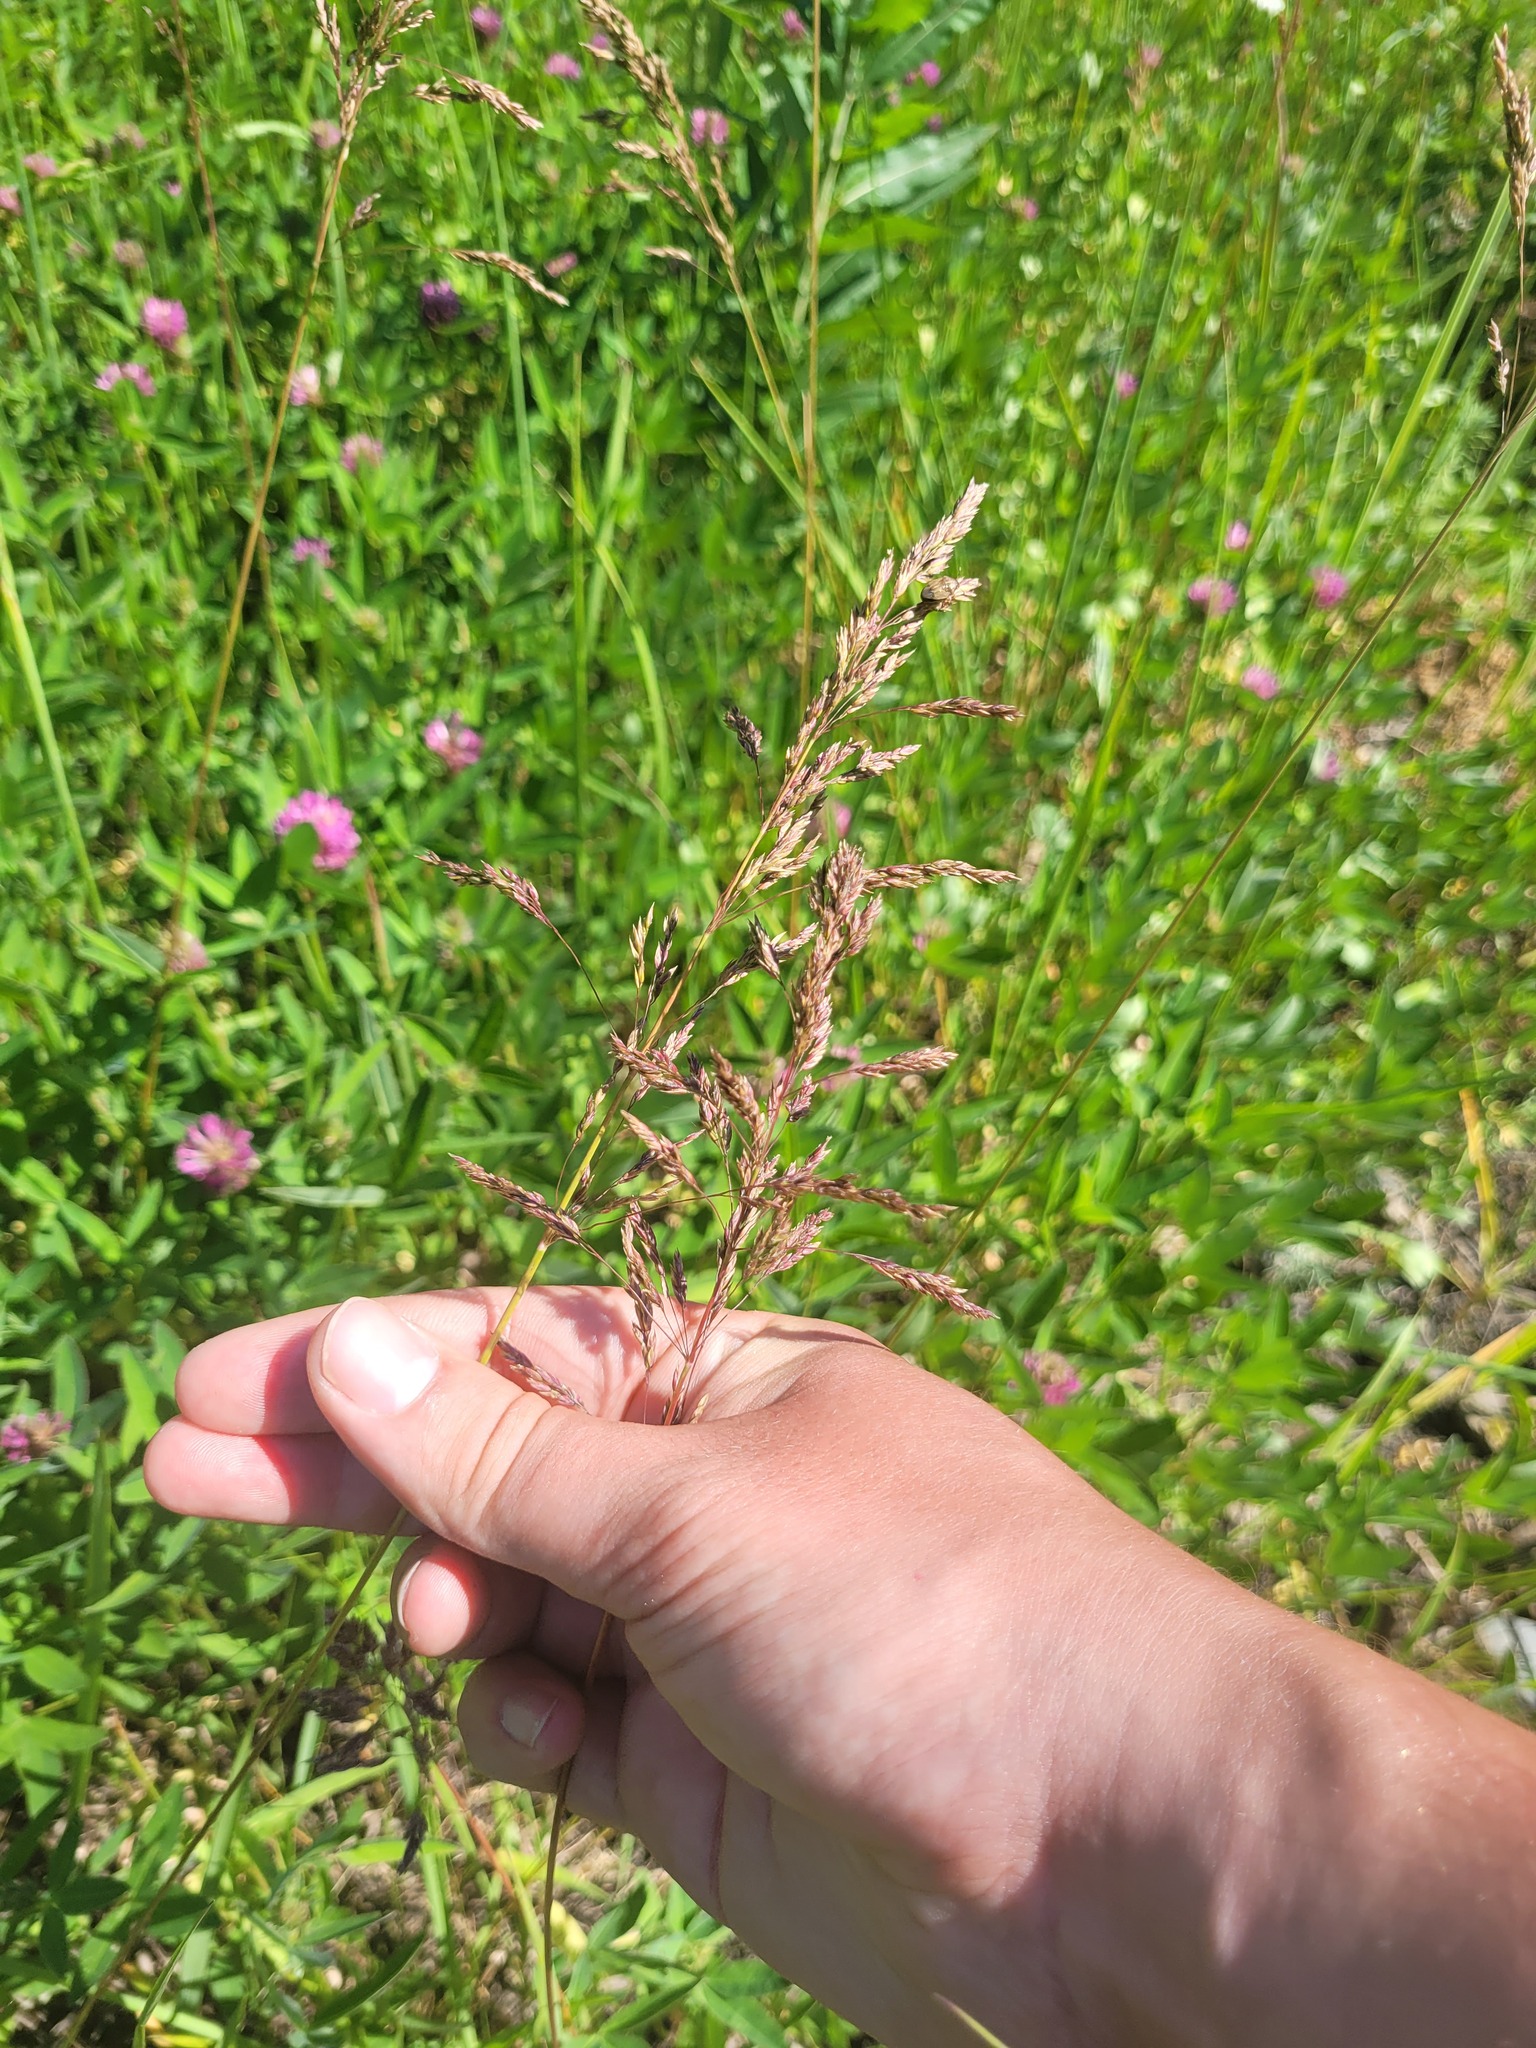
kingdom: Plantae
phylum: Tracheophyta
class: Liliopsida
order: Poales
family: Poaceae
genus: Poa
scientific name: Poa pratensis
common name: Kentucky bluegrass
